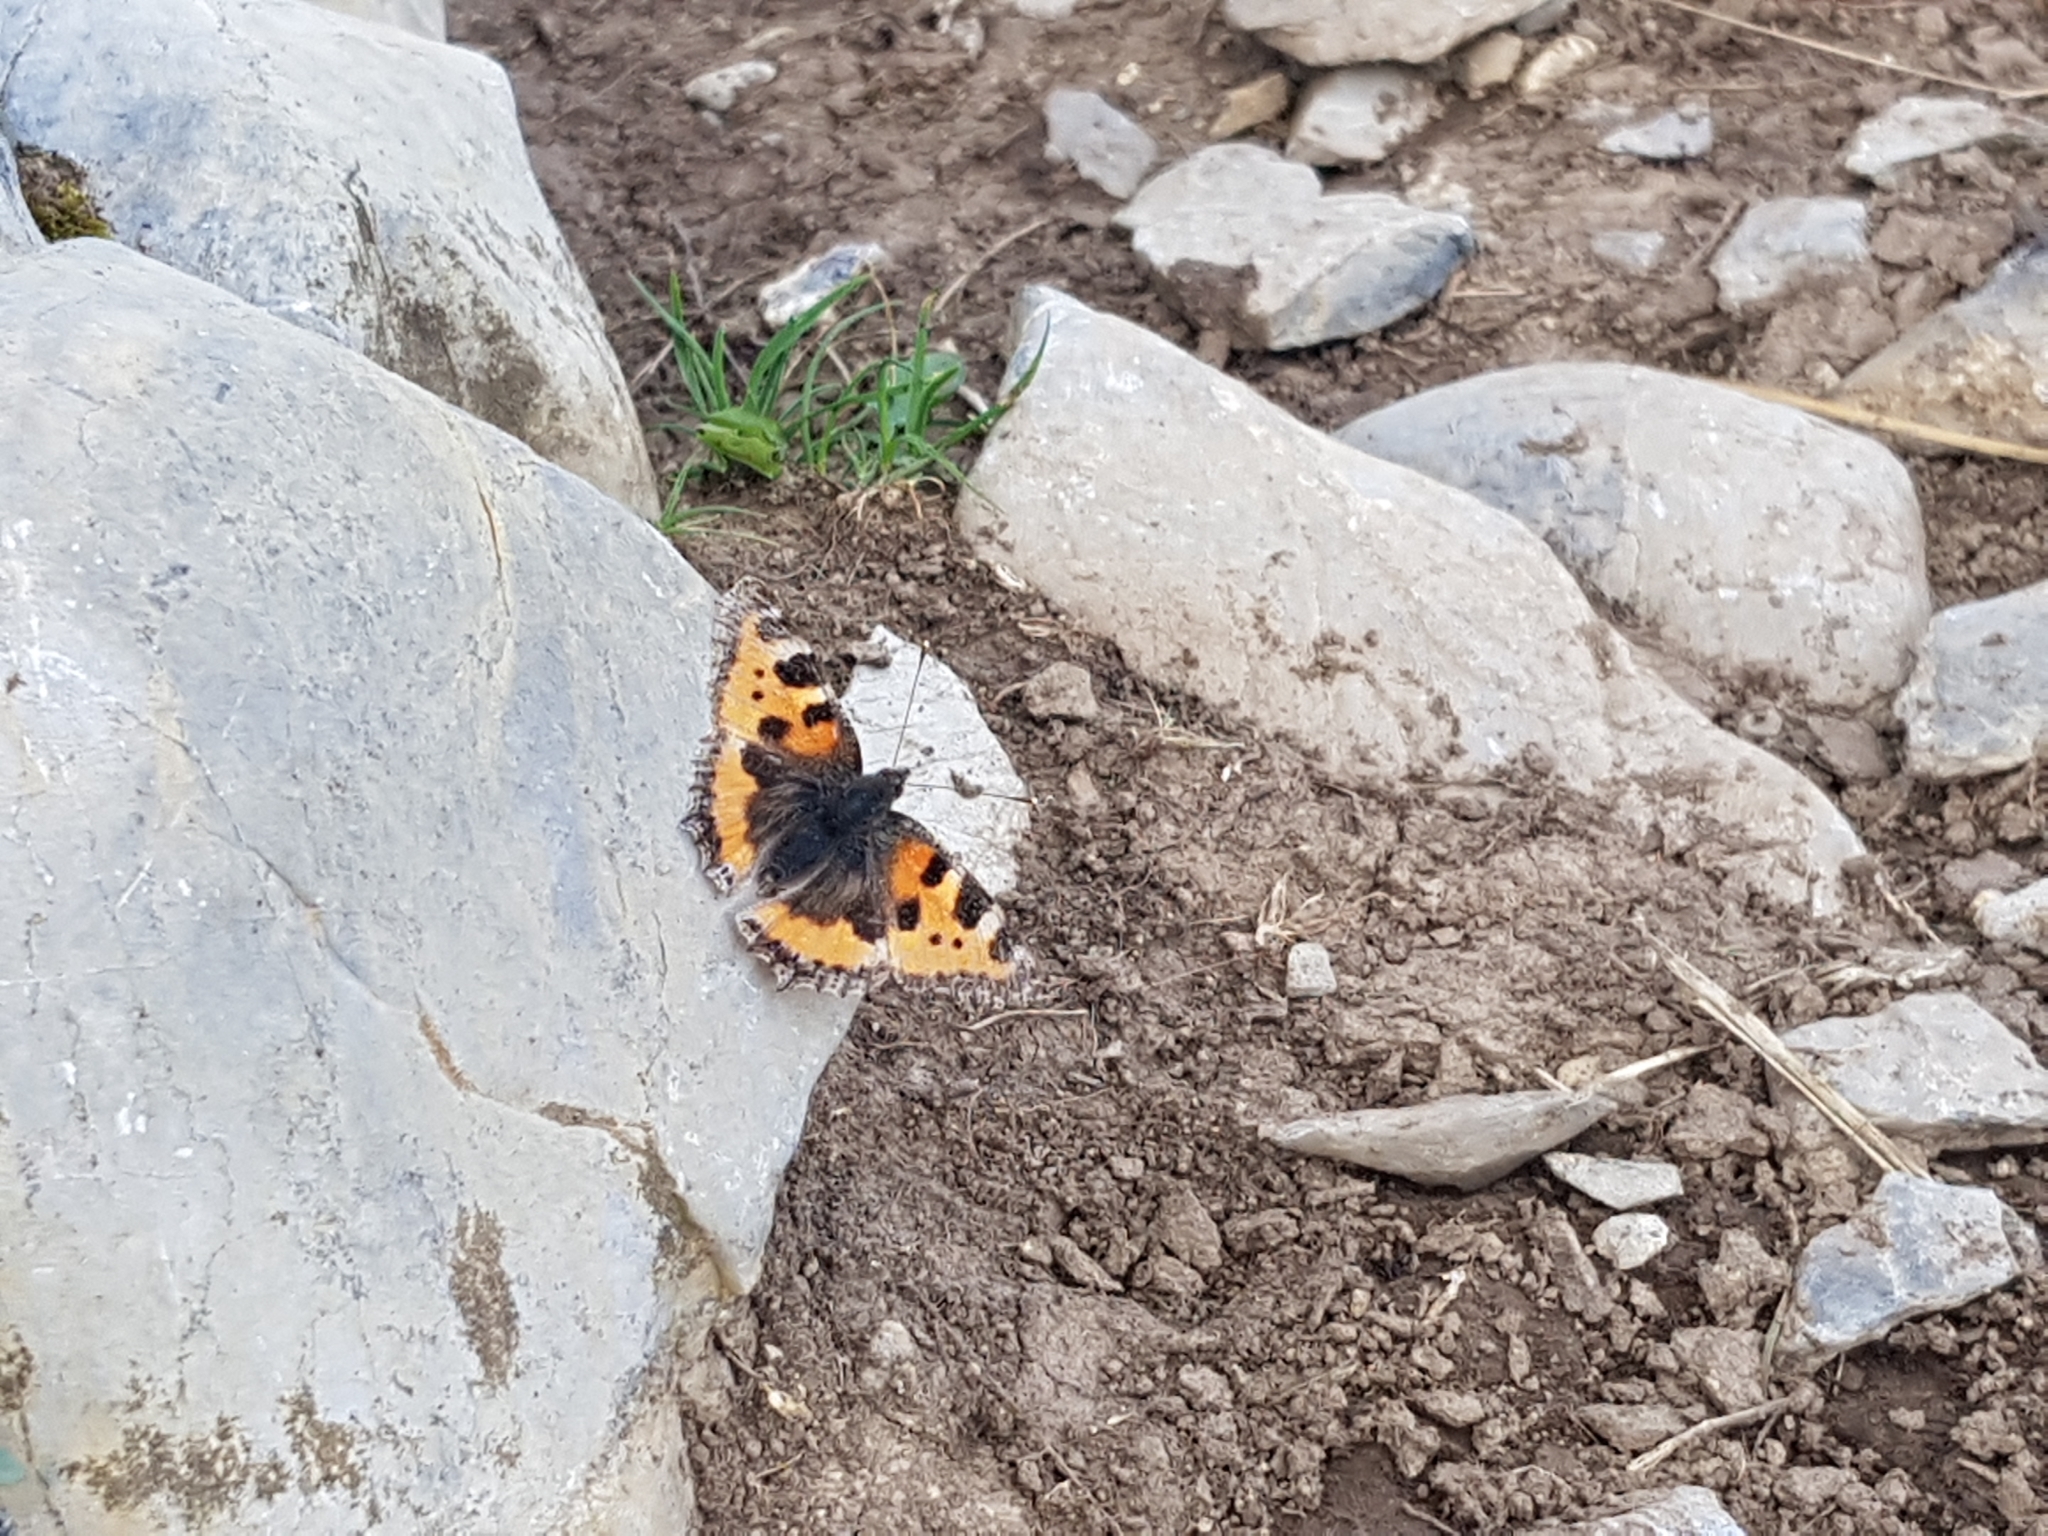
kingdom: Animalia
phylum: Arthropoda
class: Insecta
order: Lepidoptera
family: Nymphalidae
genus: Aglais
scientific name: Aglais urticae
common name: Small tortoiseshell
